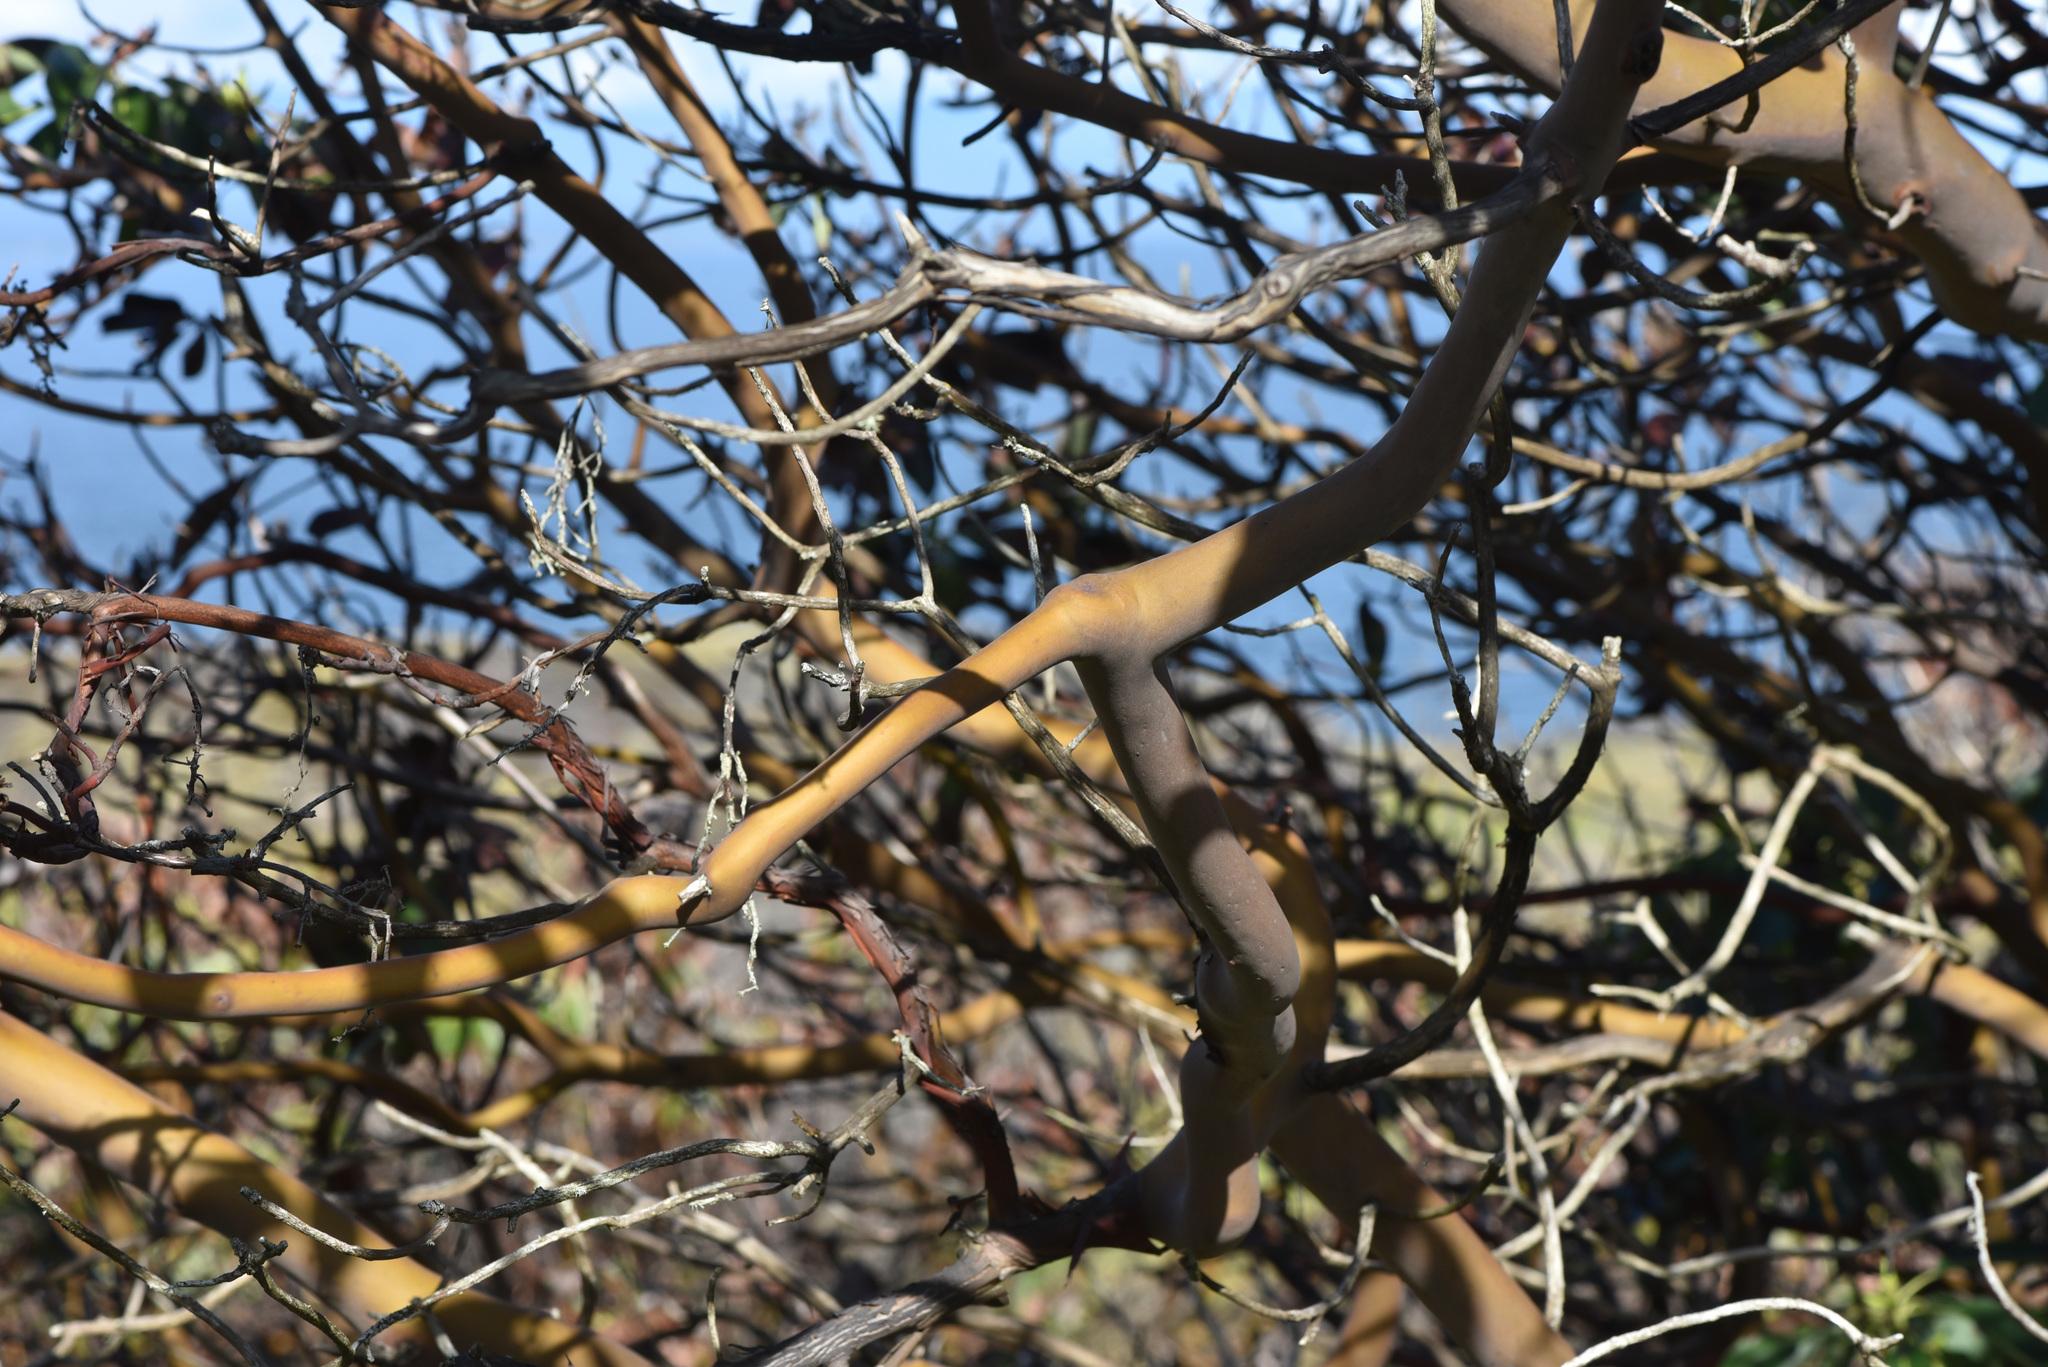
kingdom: Plantae
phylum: Tracheophyta
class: Magnoliopsida
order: Ericales
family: Ericaceae
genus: Arbutus
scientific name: Arbutus menziesii
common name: Pacific madrone
